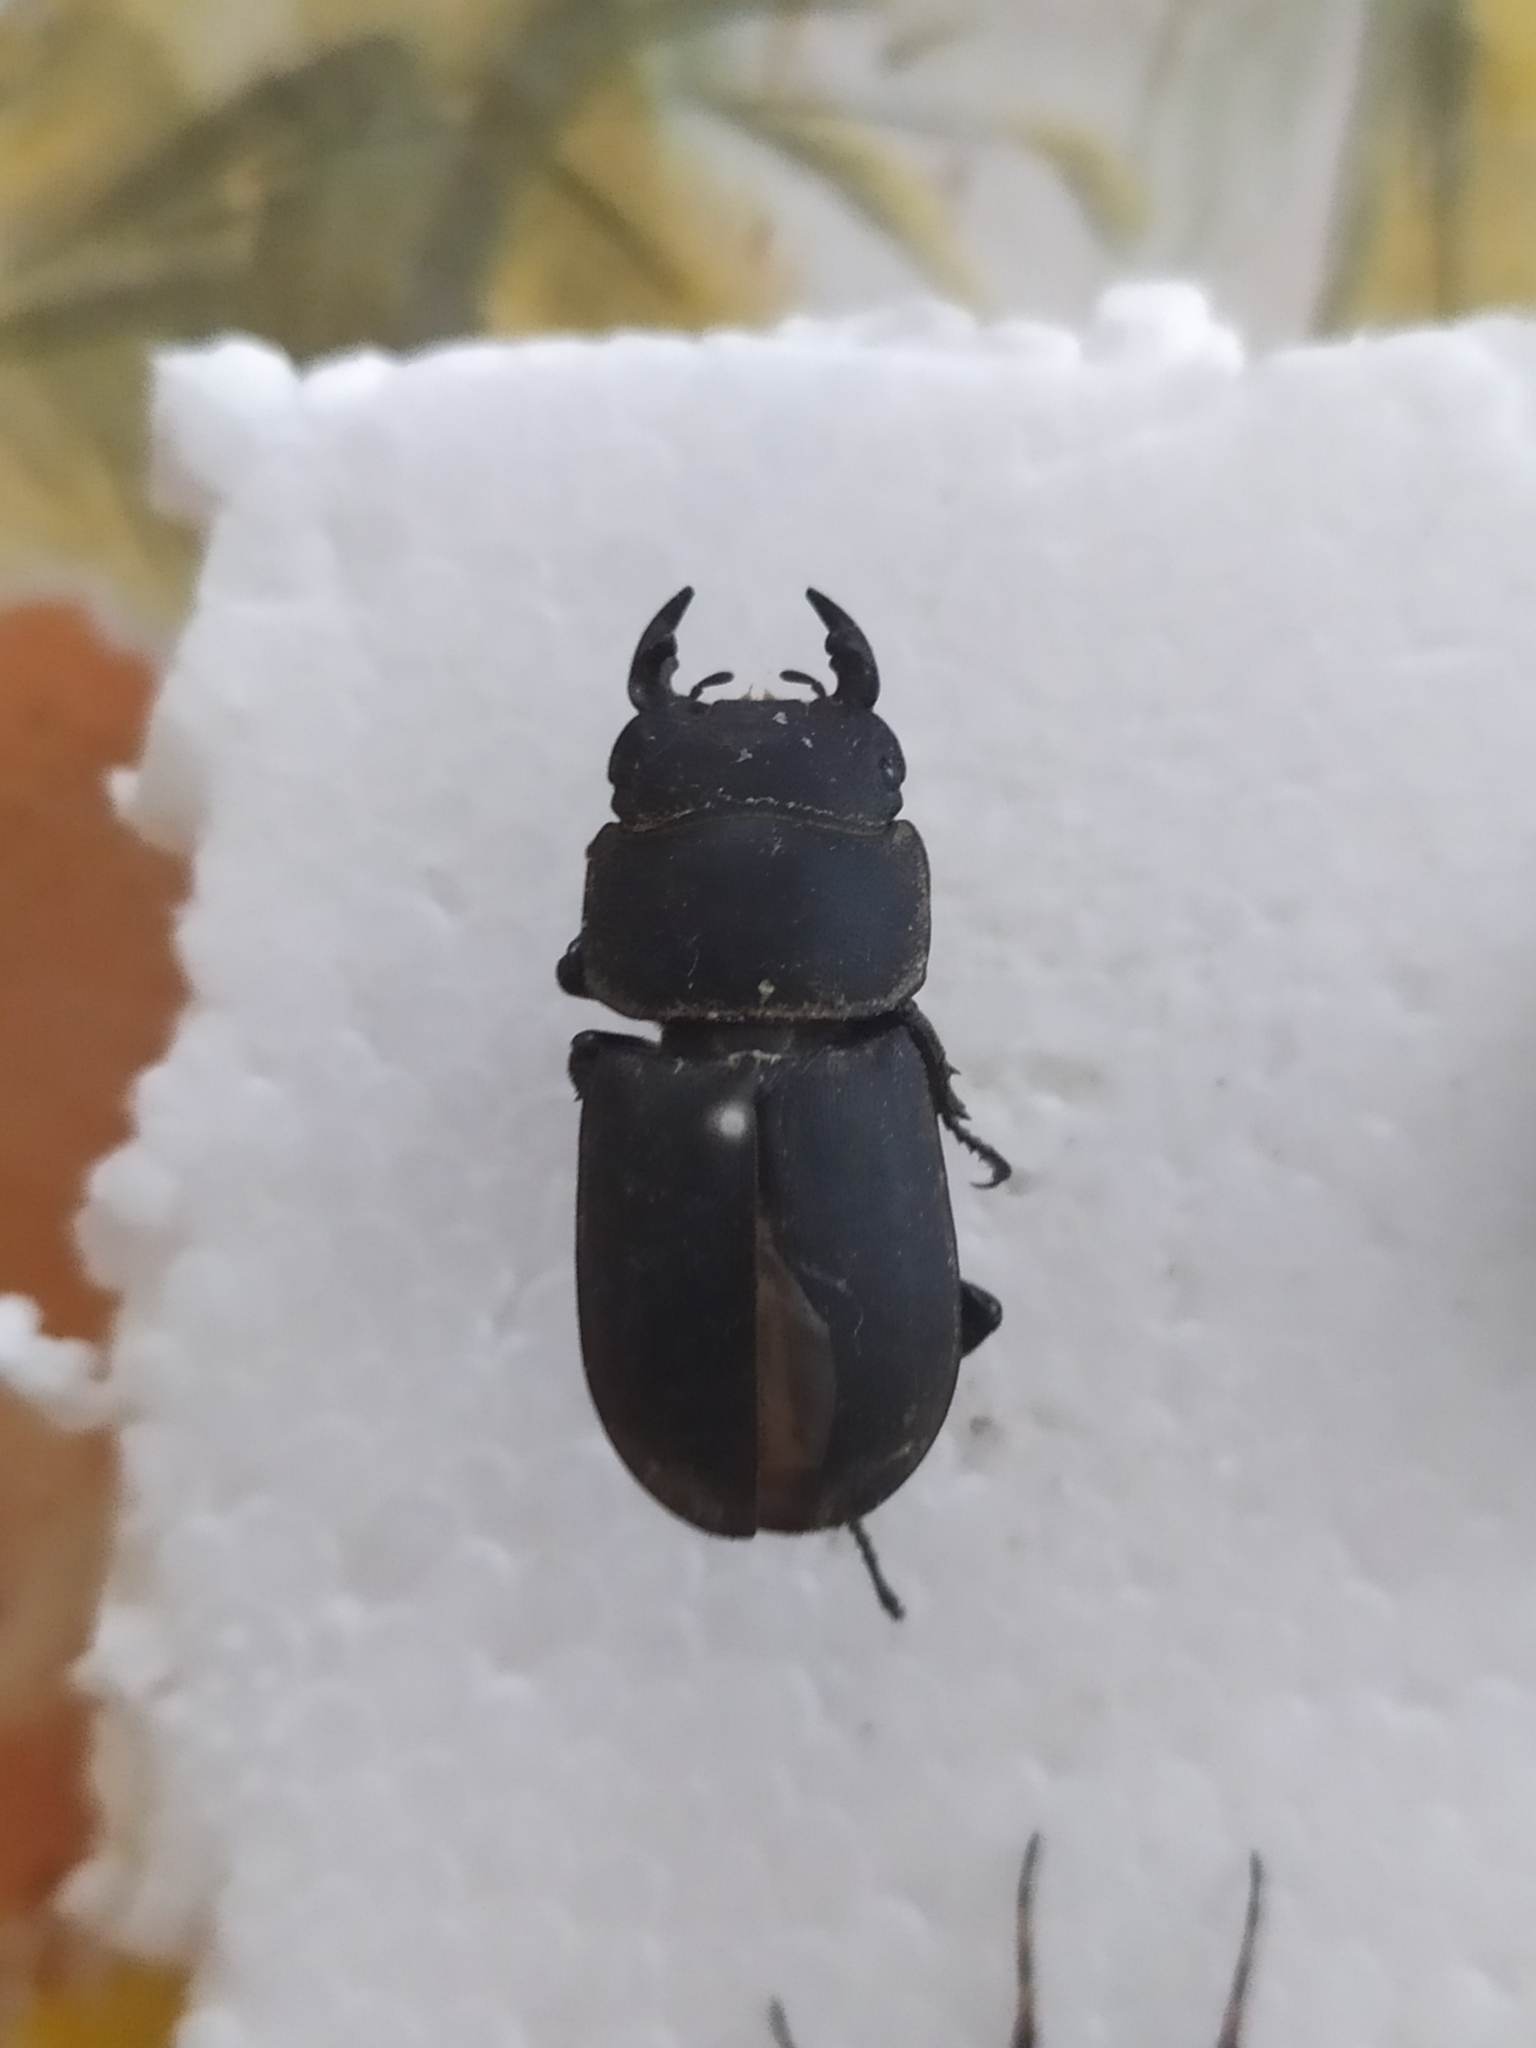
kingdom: Animalia
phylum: Arthropoda
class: Insecta
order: Coleoptera
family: Lucanidae
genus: Dorcus
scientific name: Dorcus parallelipipedus
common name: Lesser stag beetle
